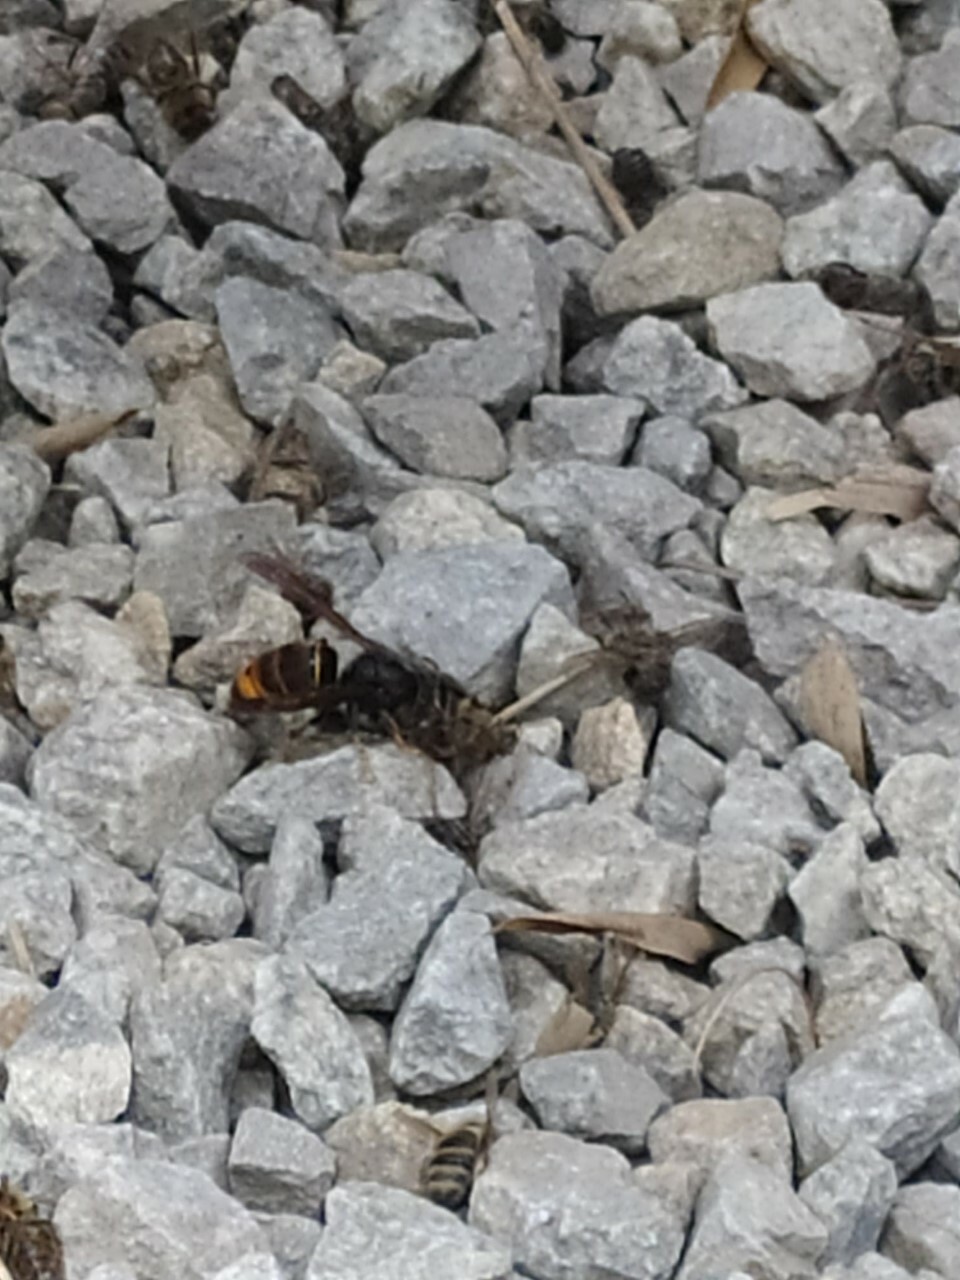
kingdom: Animalia
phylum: Arthropoda
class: Insecta
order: Hymenoptera
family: Vespidae
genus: Vespa
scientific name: Vespa velutina
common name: Asian hornet
